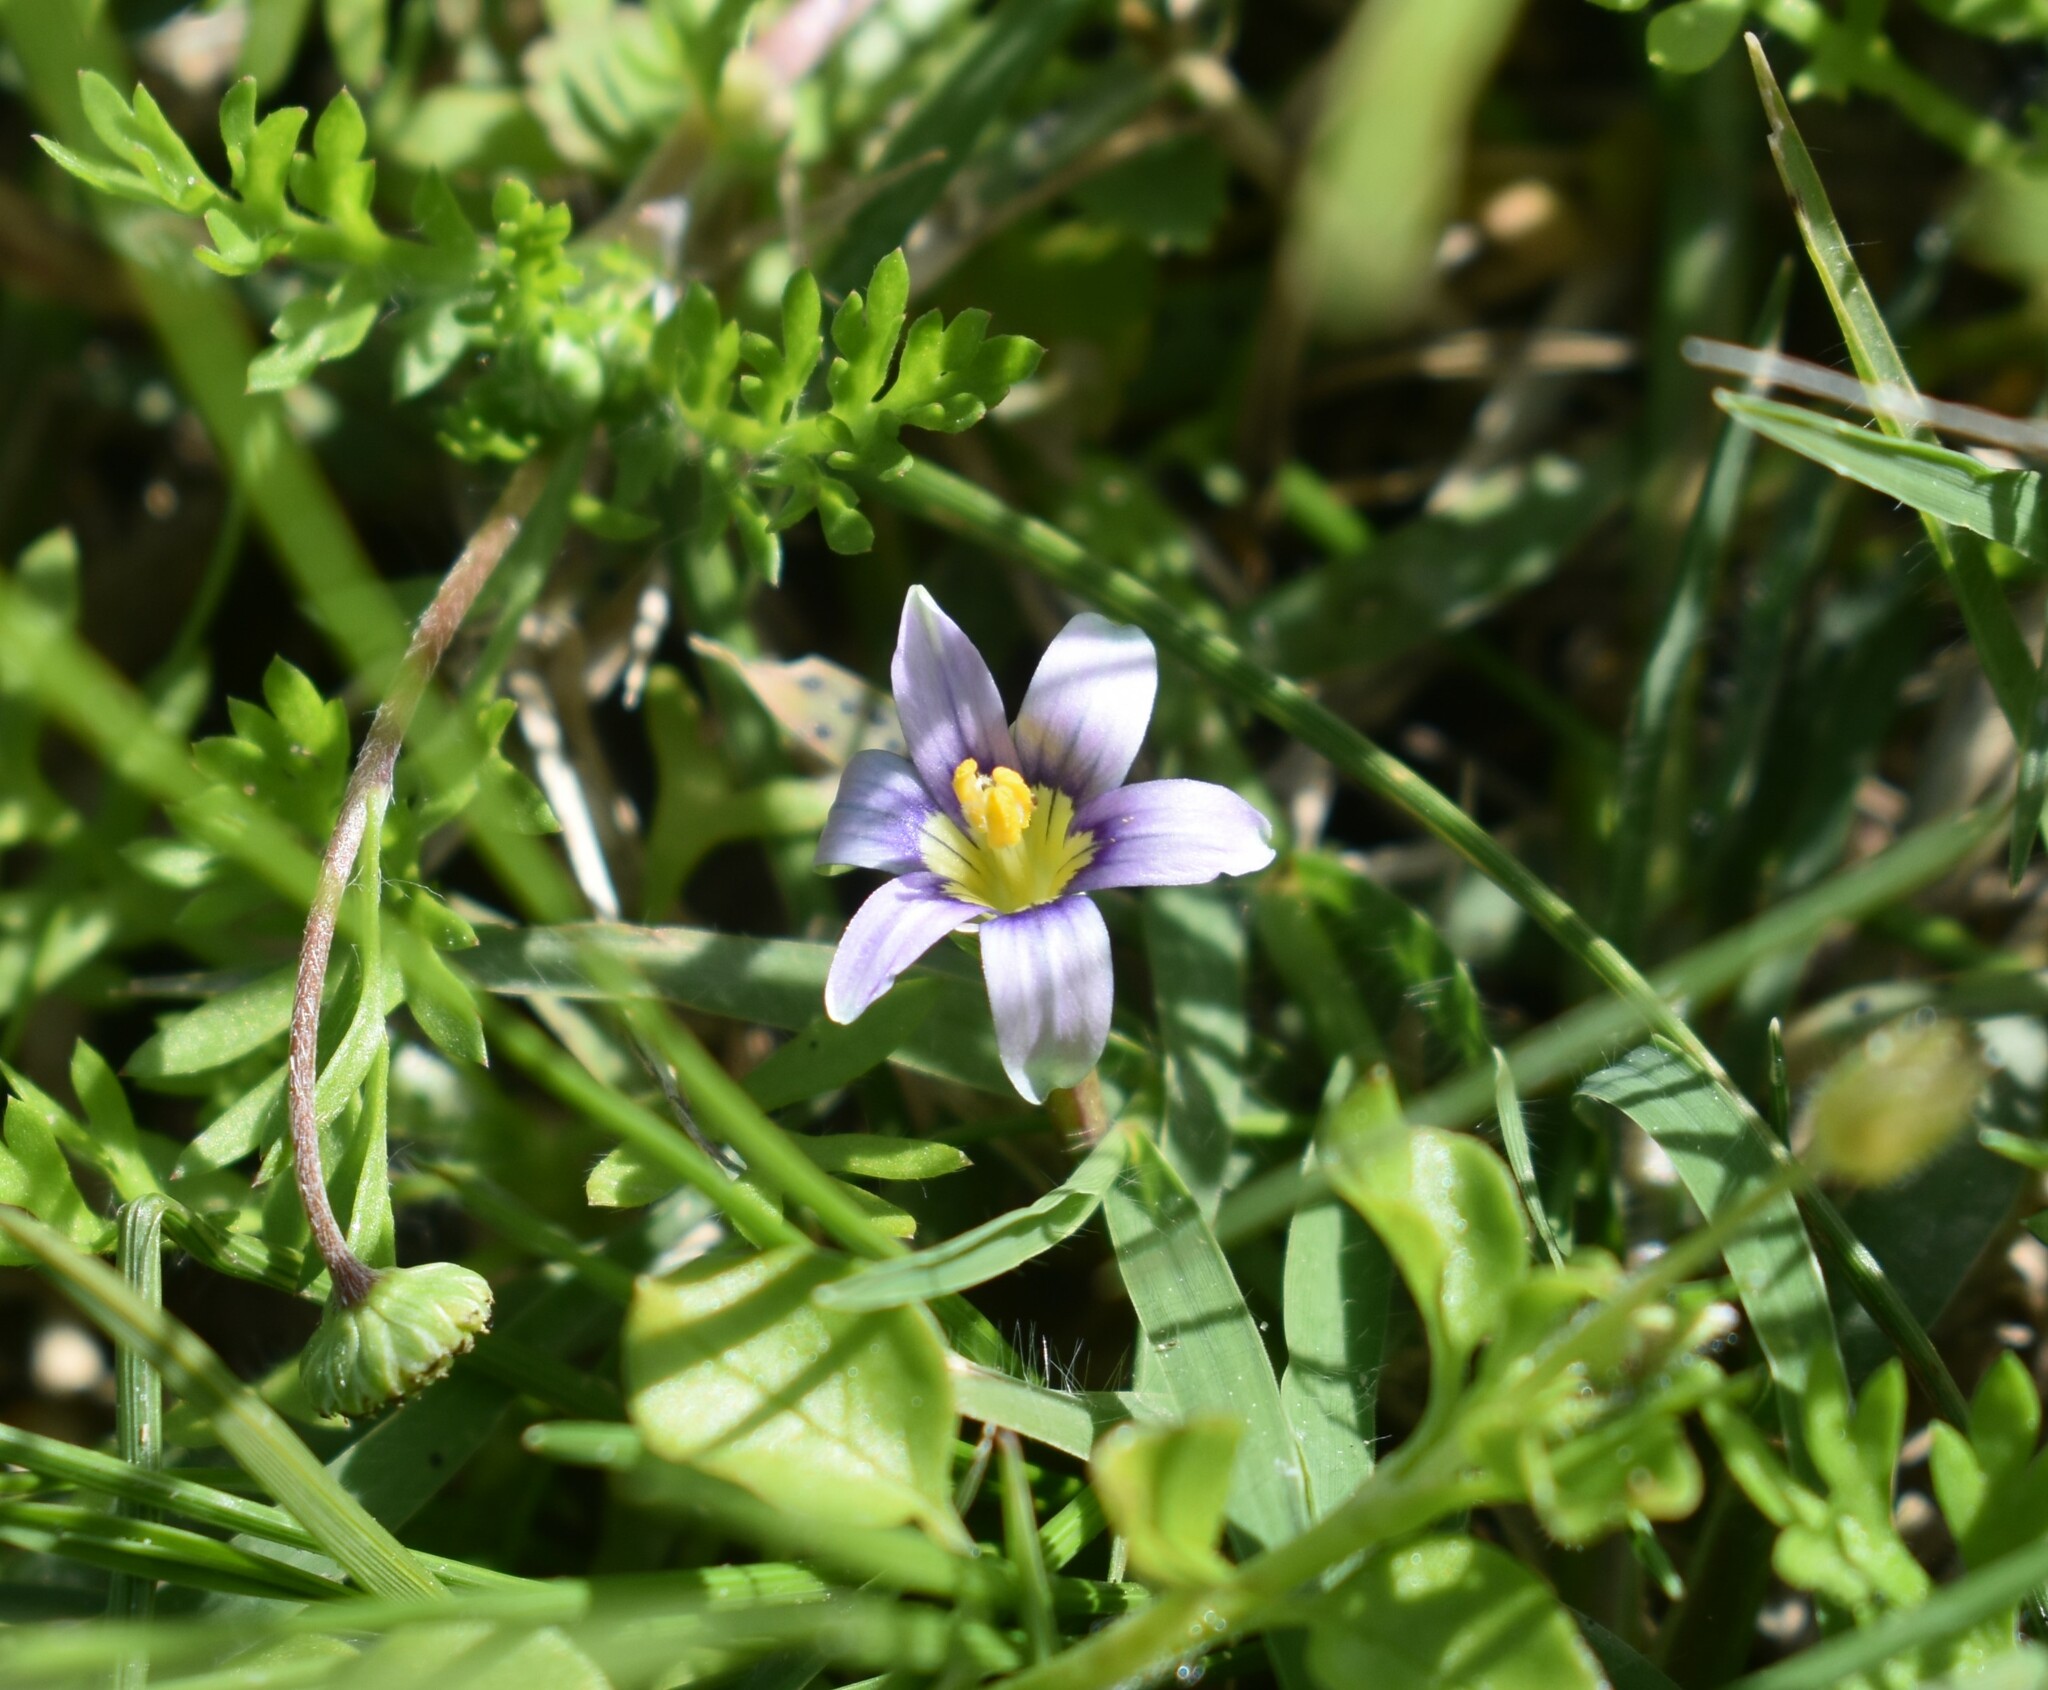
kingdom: Plantae
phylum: Tracheophyta
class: Liliopsida
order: Asparagales
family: Iridaceae
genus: Romulea
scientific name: Romulea minutiflora
